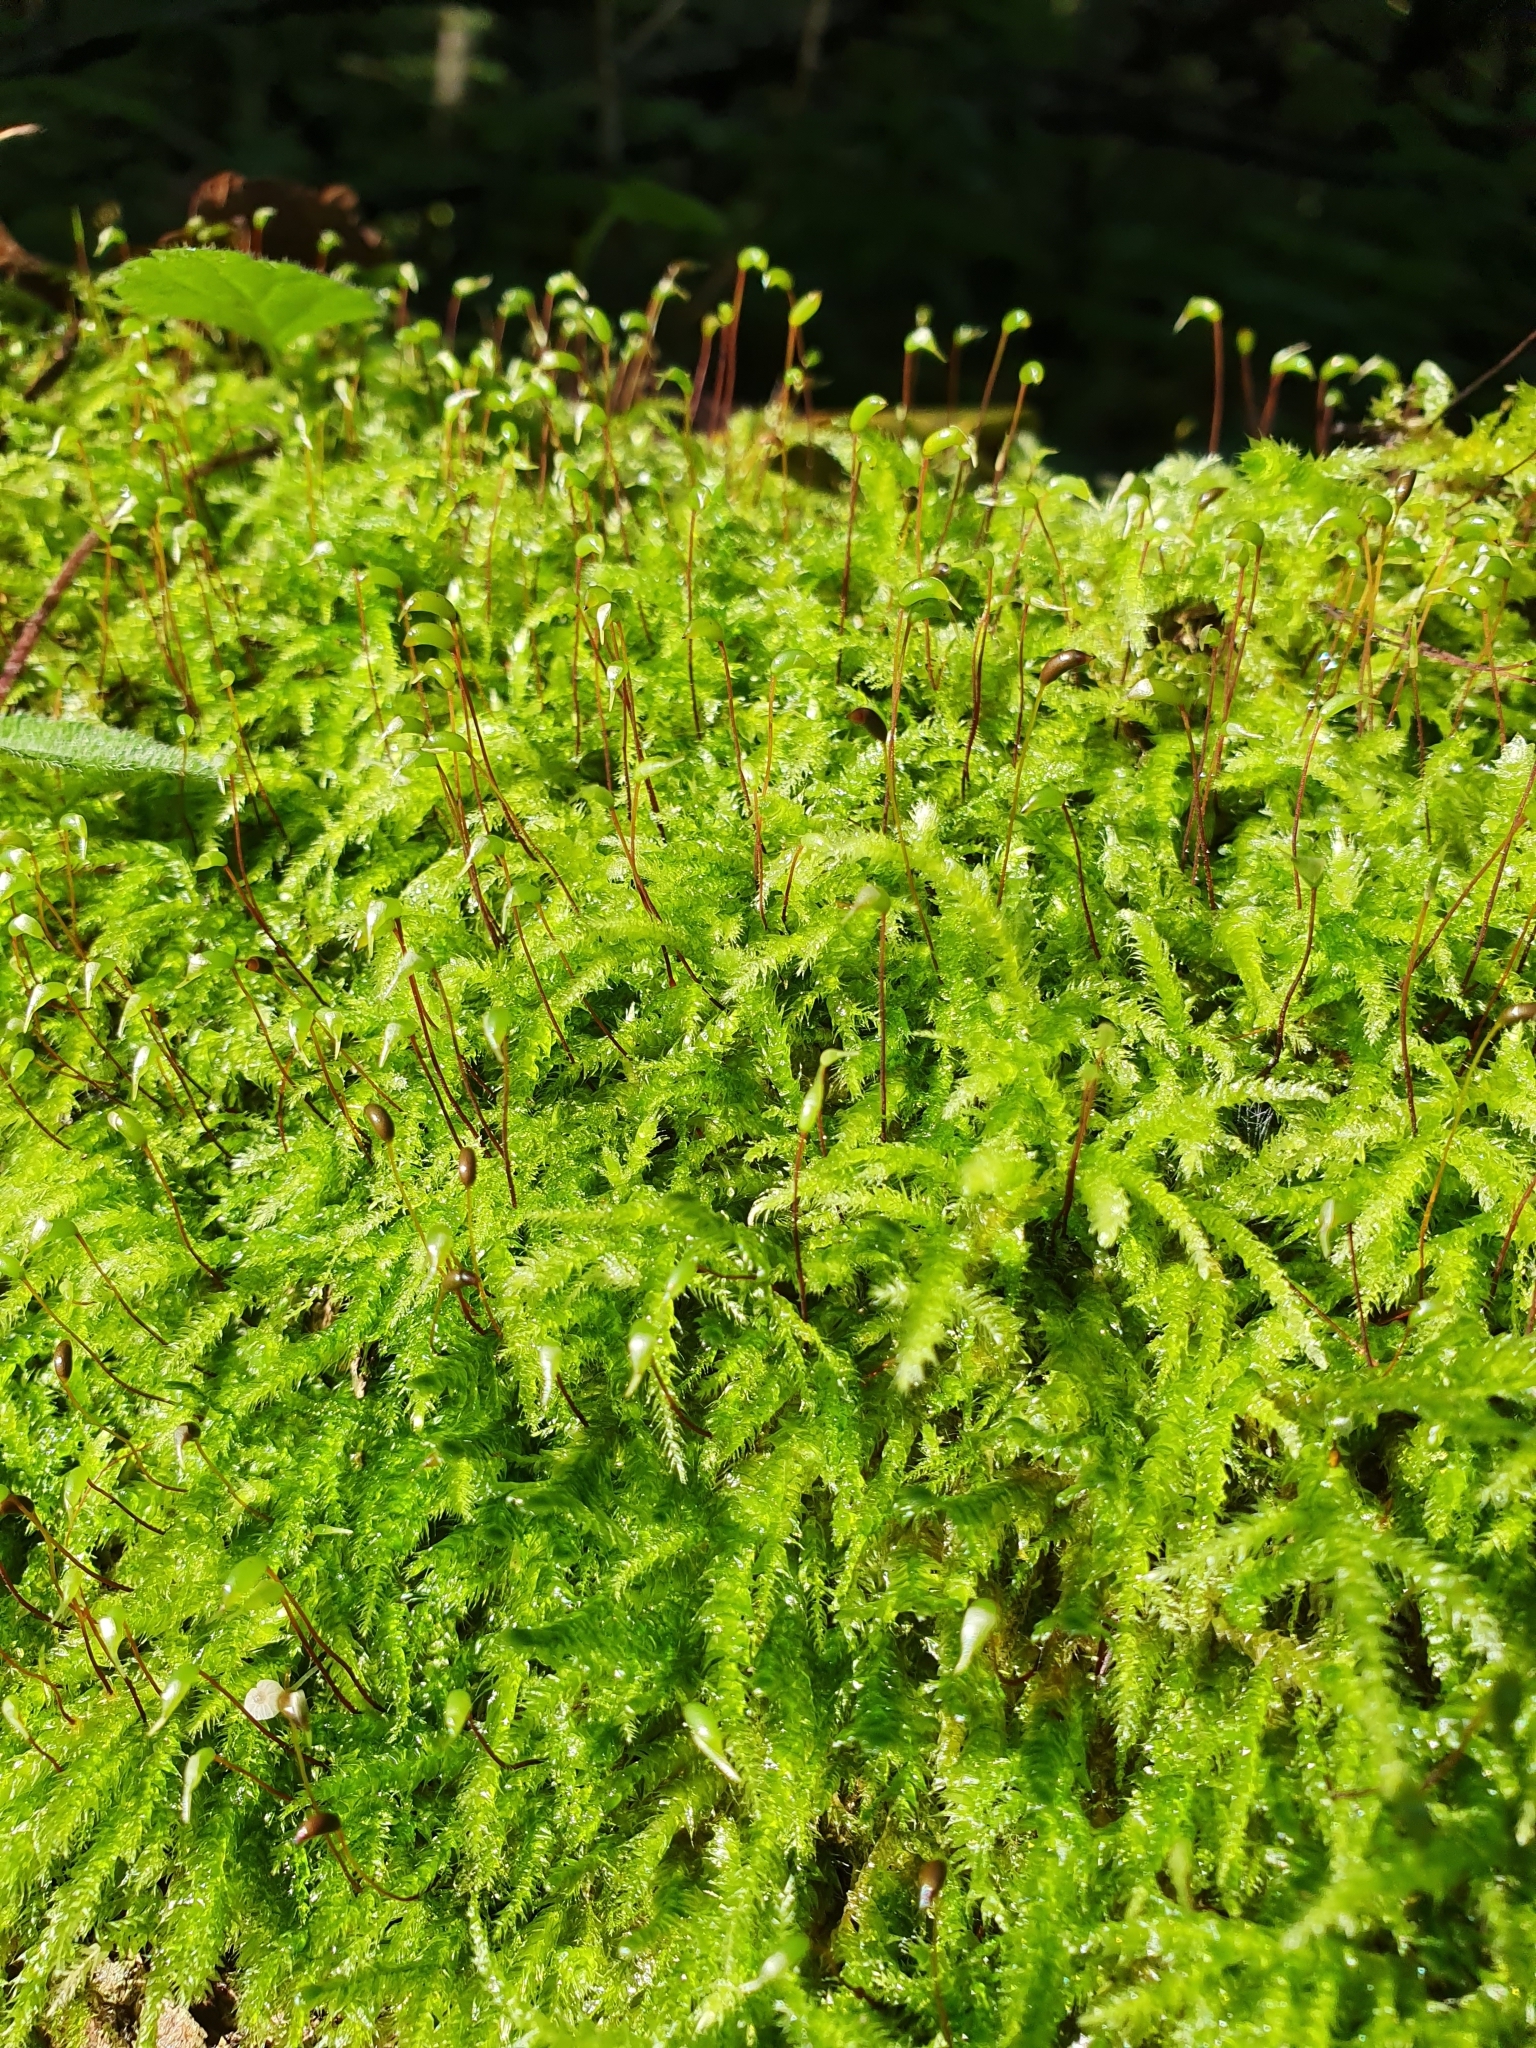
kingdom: Plantae
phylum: Bryophyta
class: Bryopsida
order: Hypnales
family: Brachytheciaceae
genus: Brachythecium
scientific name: Brachythecium rutabulum
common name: Rough-stalked feather-moss
